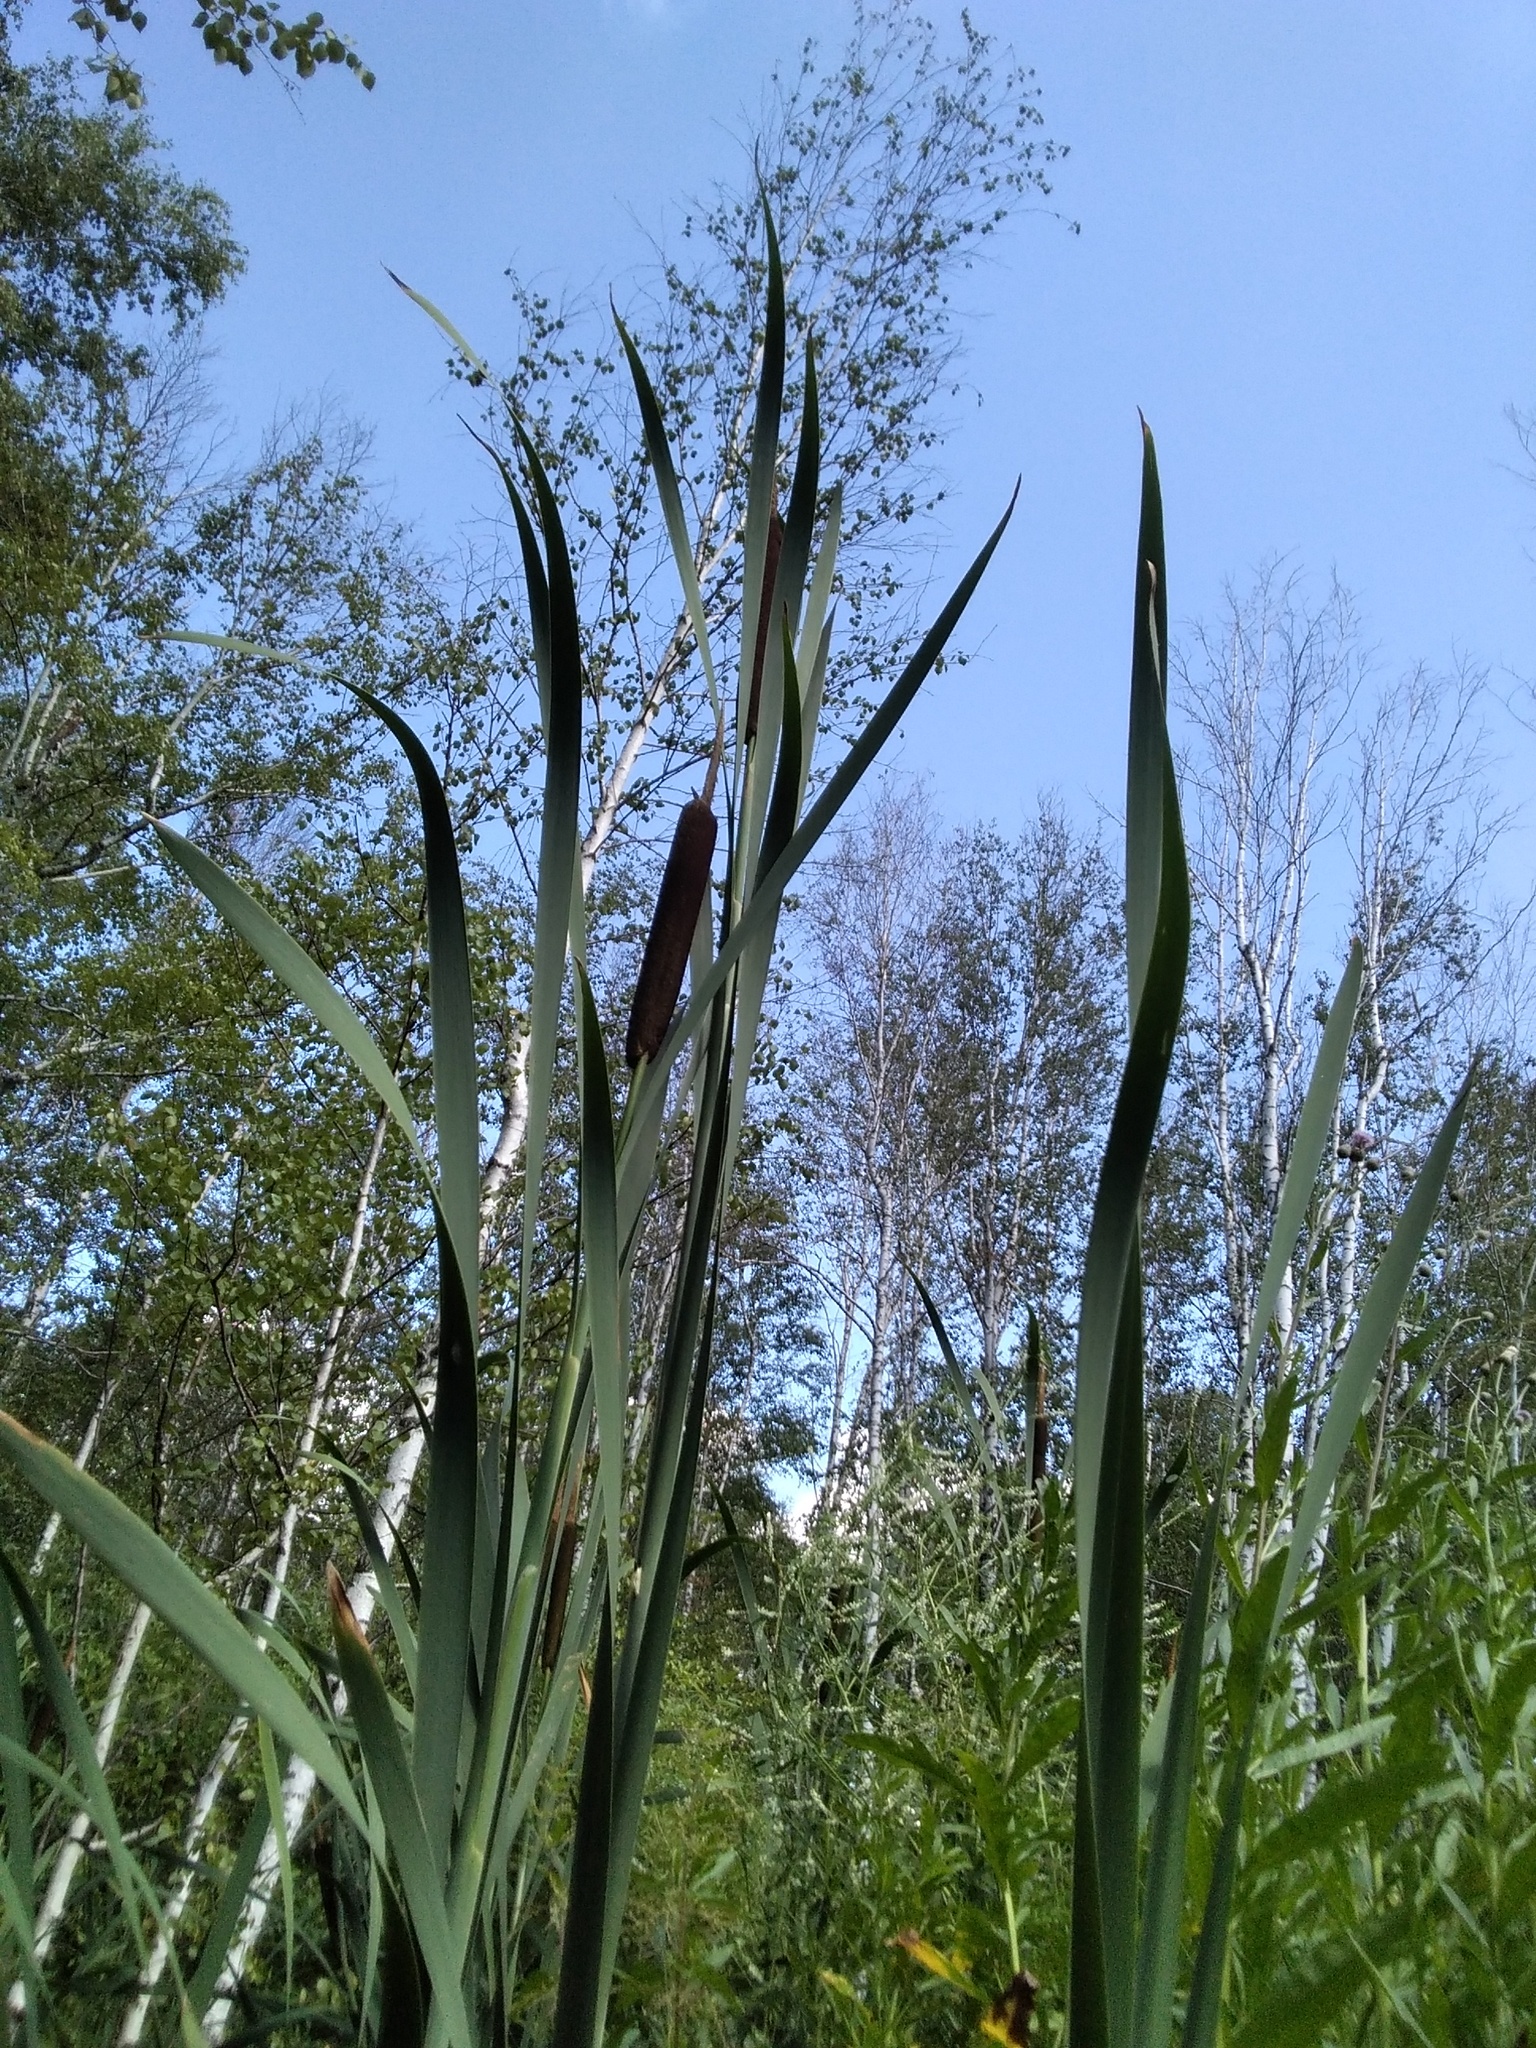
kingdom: Plantae
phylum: Tracheophyta
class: Liliopsida
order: Poales
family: Typhaceae
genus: Typha
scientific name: Typha latifolia
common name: Broadleaf cattail
